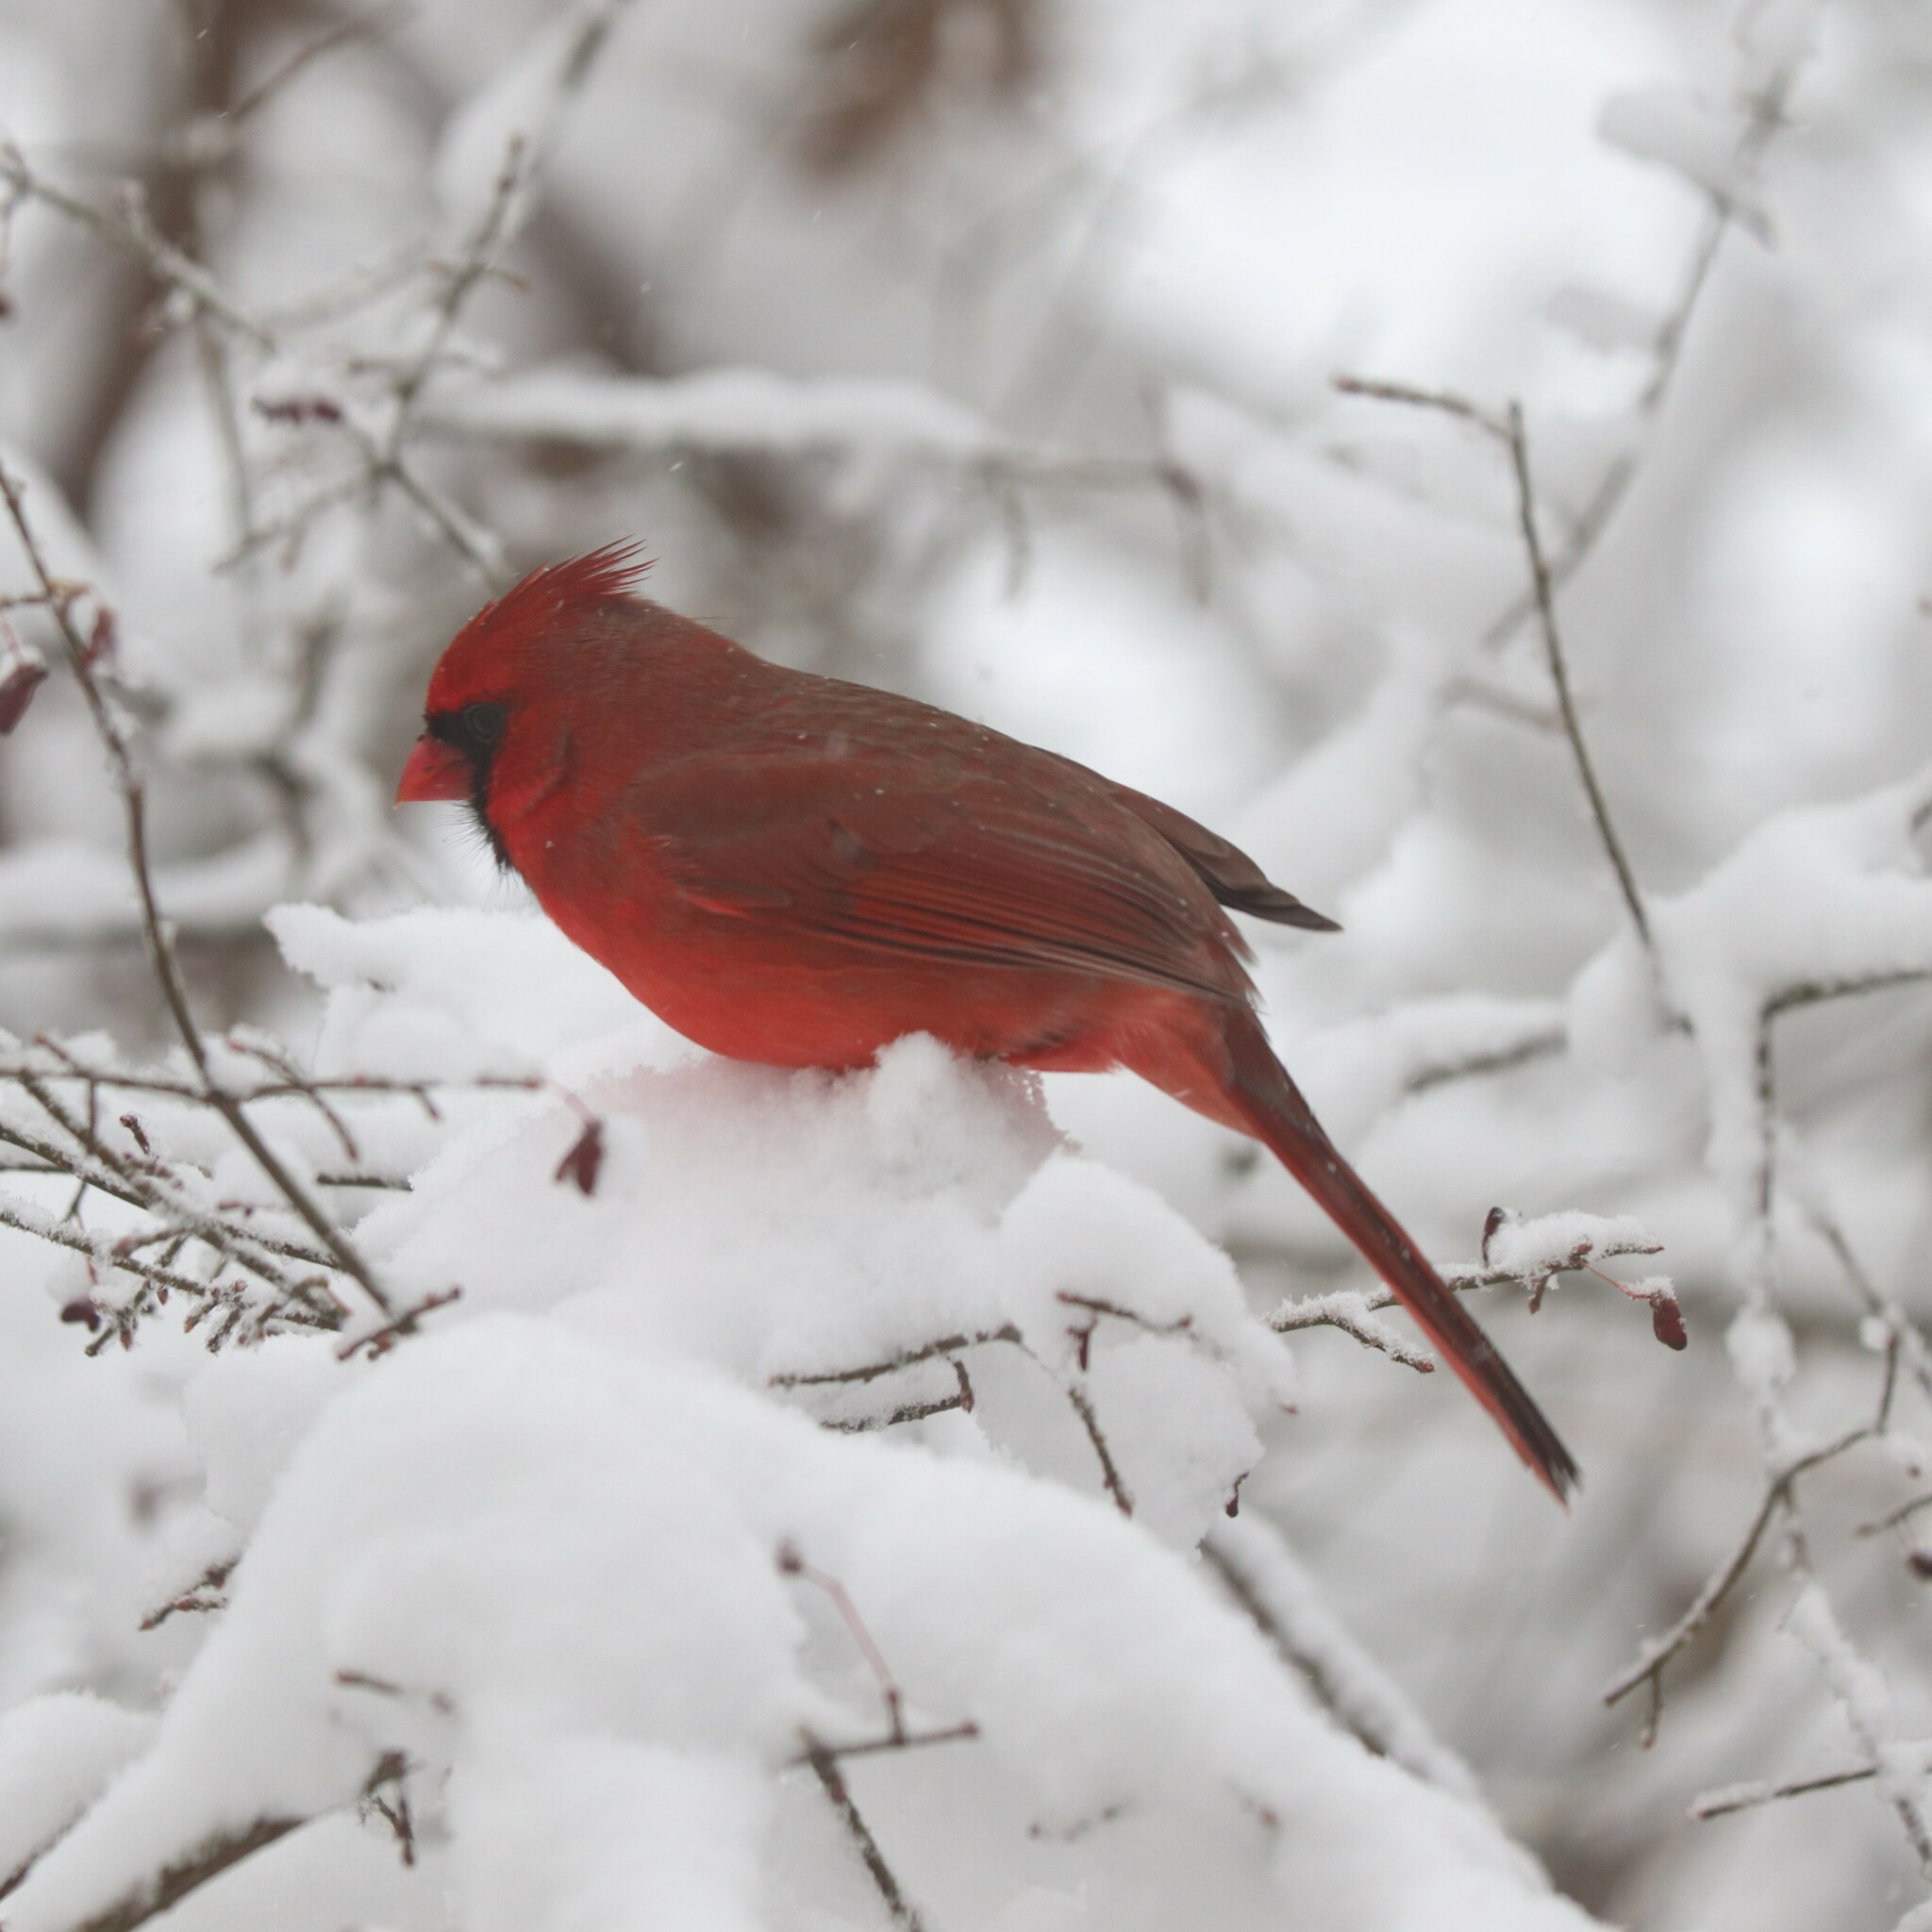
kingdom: Animalia
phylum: Chordata
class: Aves
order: Passeriformes
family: Cardinalidae
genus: Cardinalis
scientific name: Cardinalis cardinalis
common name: Northern cardinal
